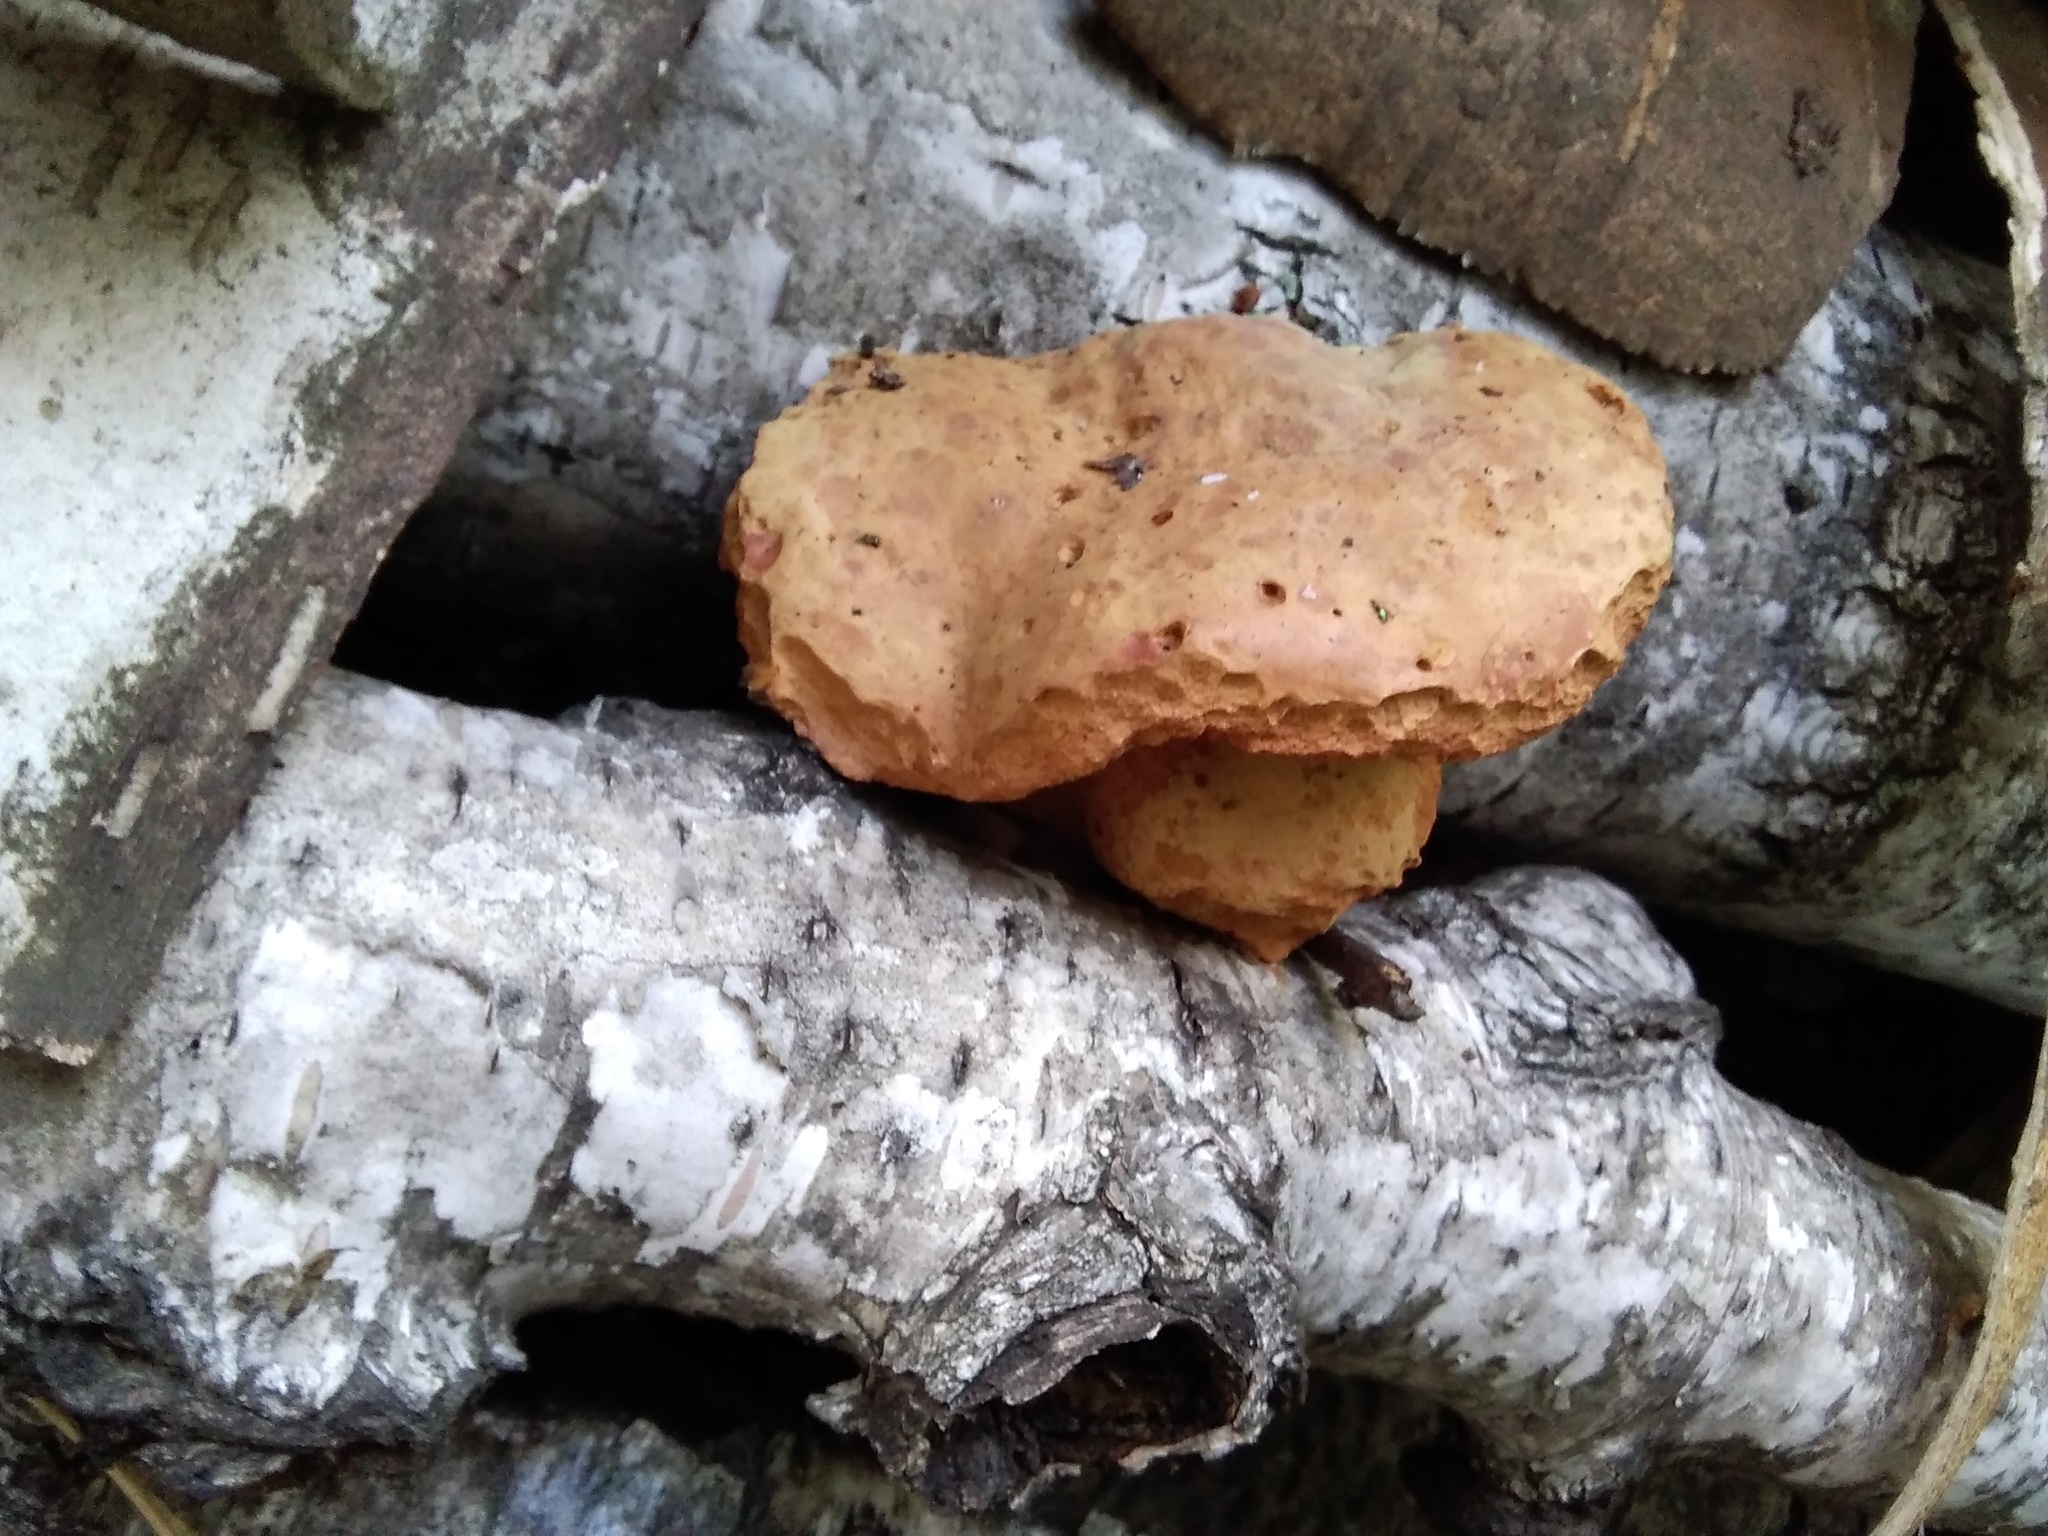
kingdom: Fungi
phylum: Basidiomycota
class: Agaricomycetes
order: Polyporales
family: Phanerochaetaceae
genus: Hapalopilus
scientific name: Hapalopilus rutilans
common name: Tender nesting polypore
